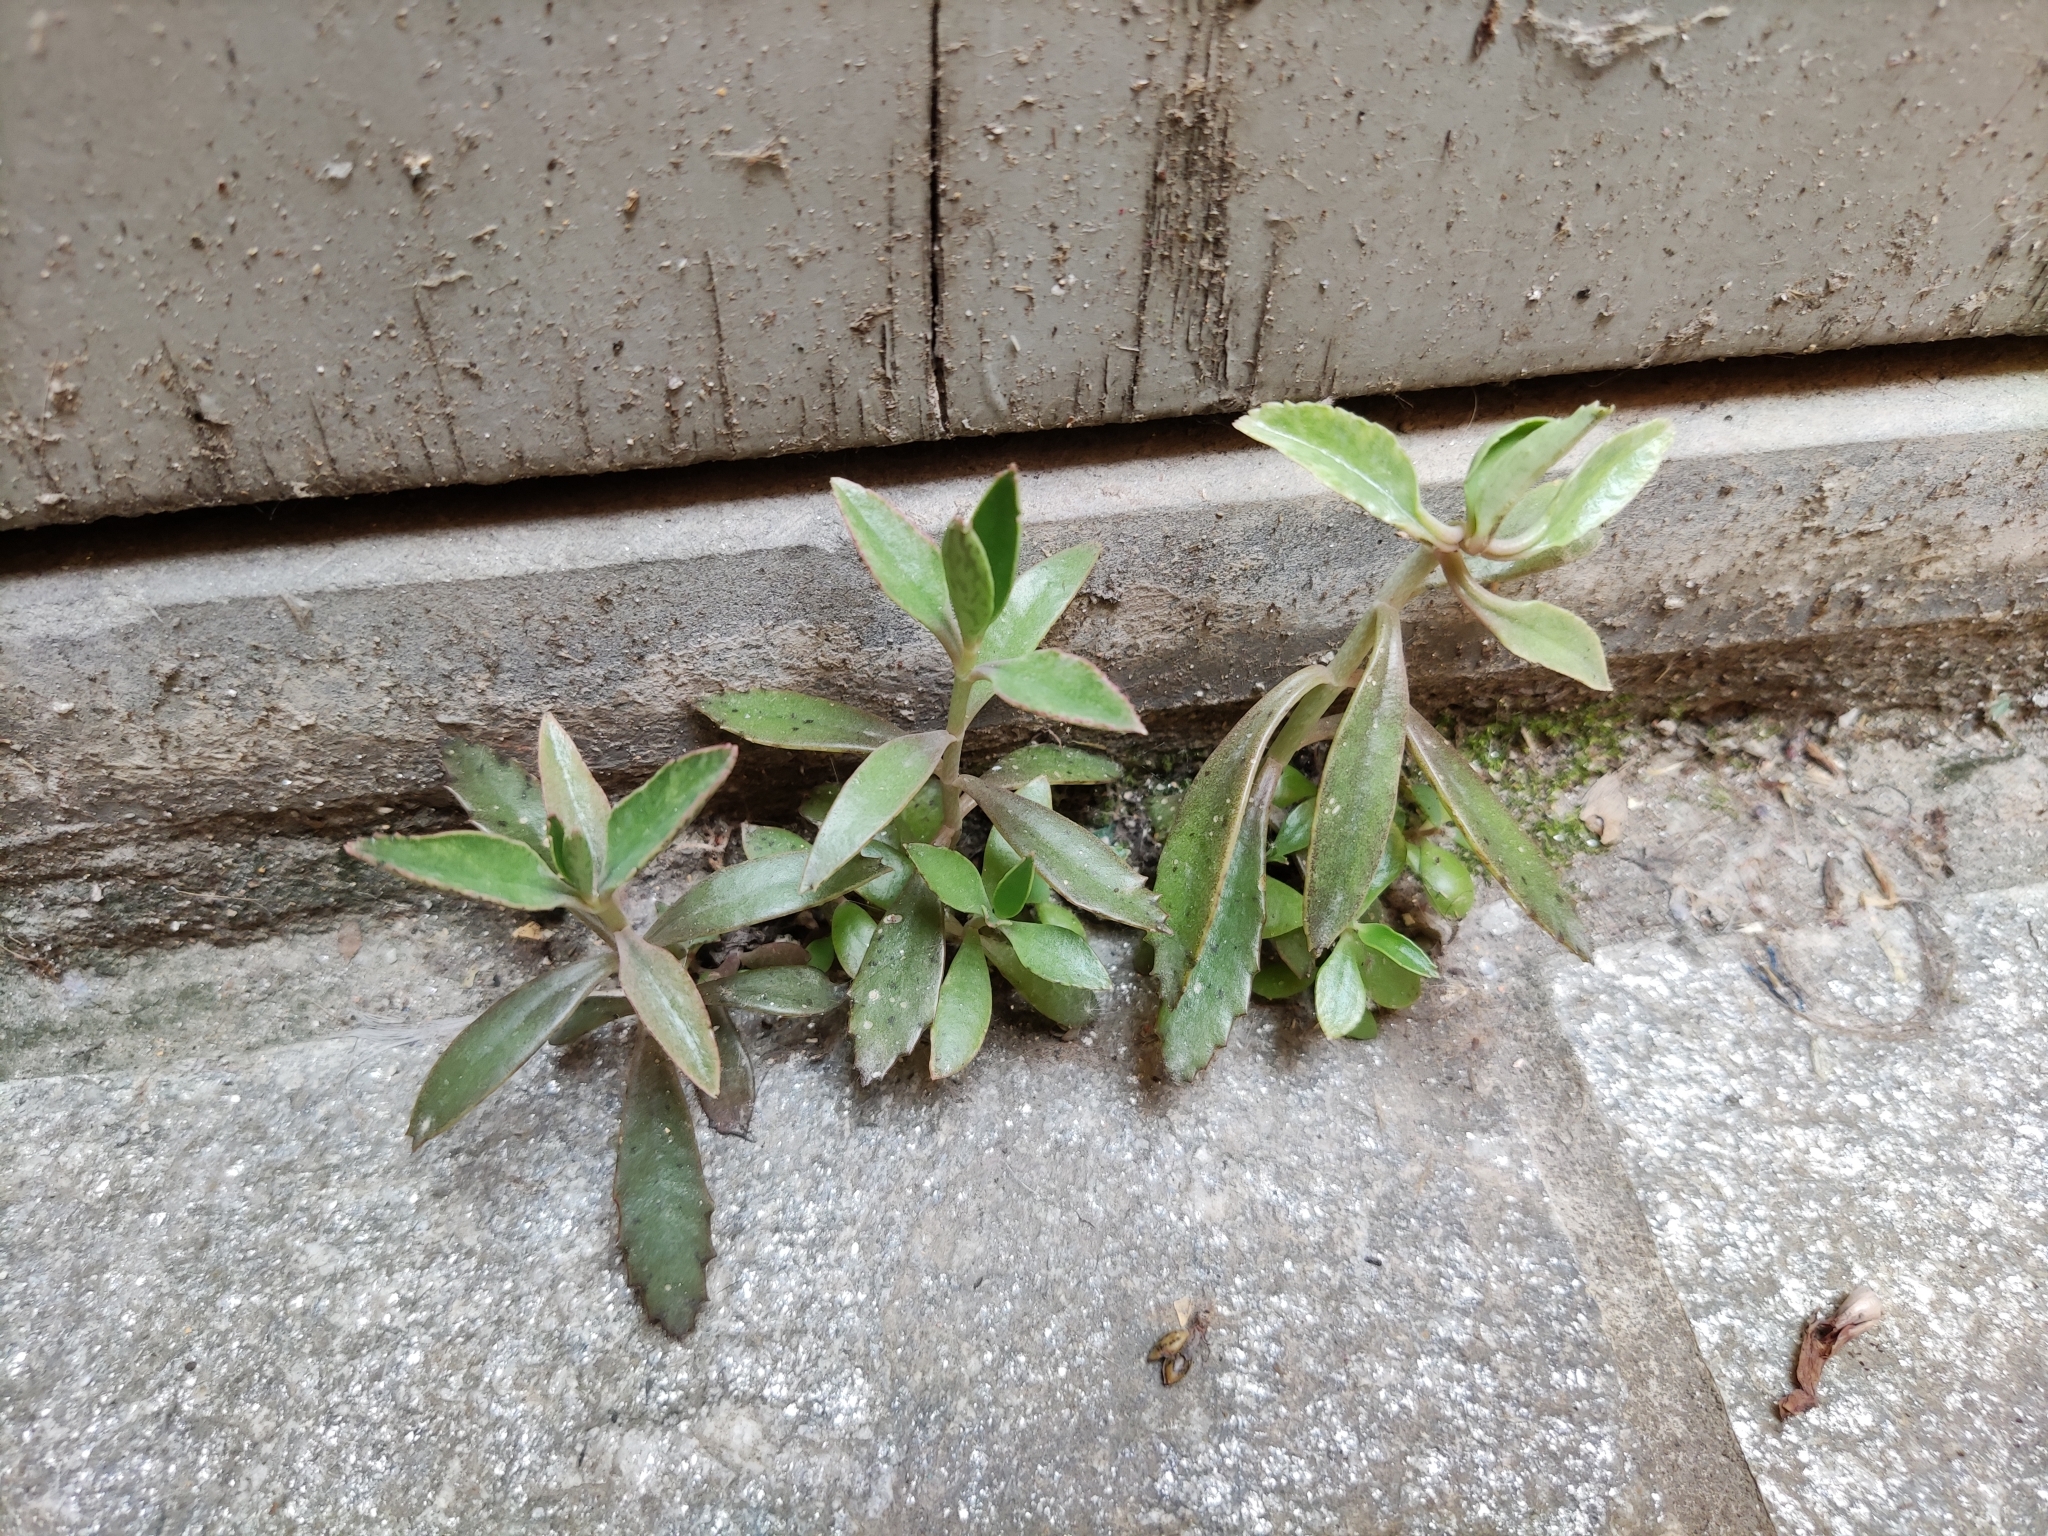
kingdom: Plantae
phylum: Tracheophyta
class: Magnoliopsida
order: Saxifragales
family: Crassulaceae
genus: Kalanchoe
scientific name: Kalanchoe houghtonii
